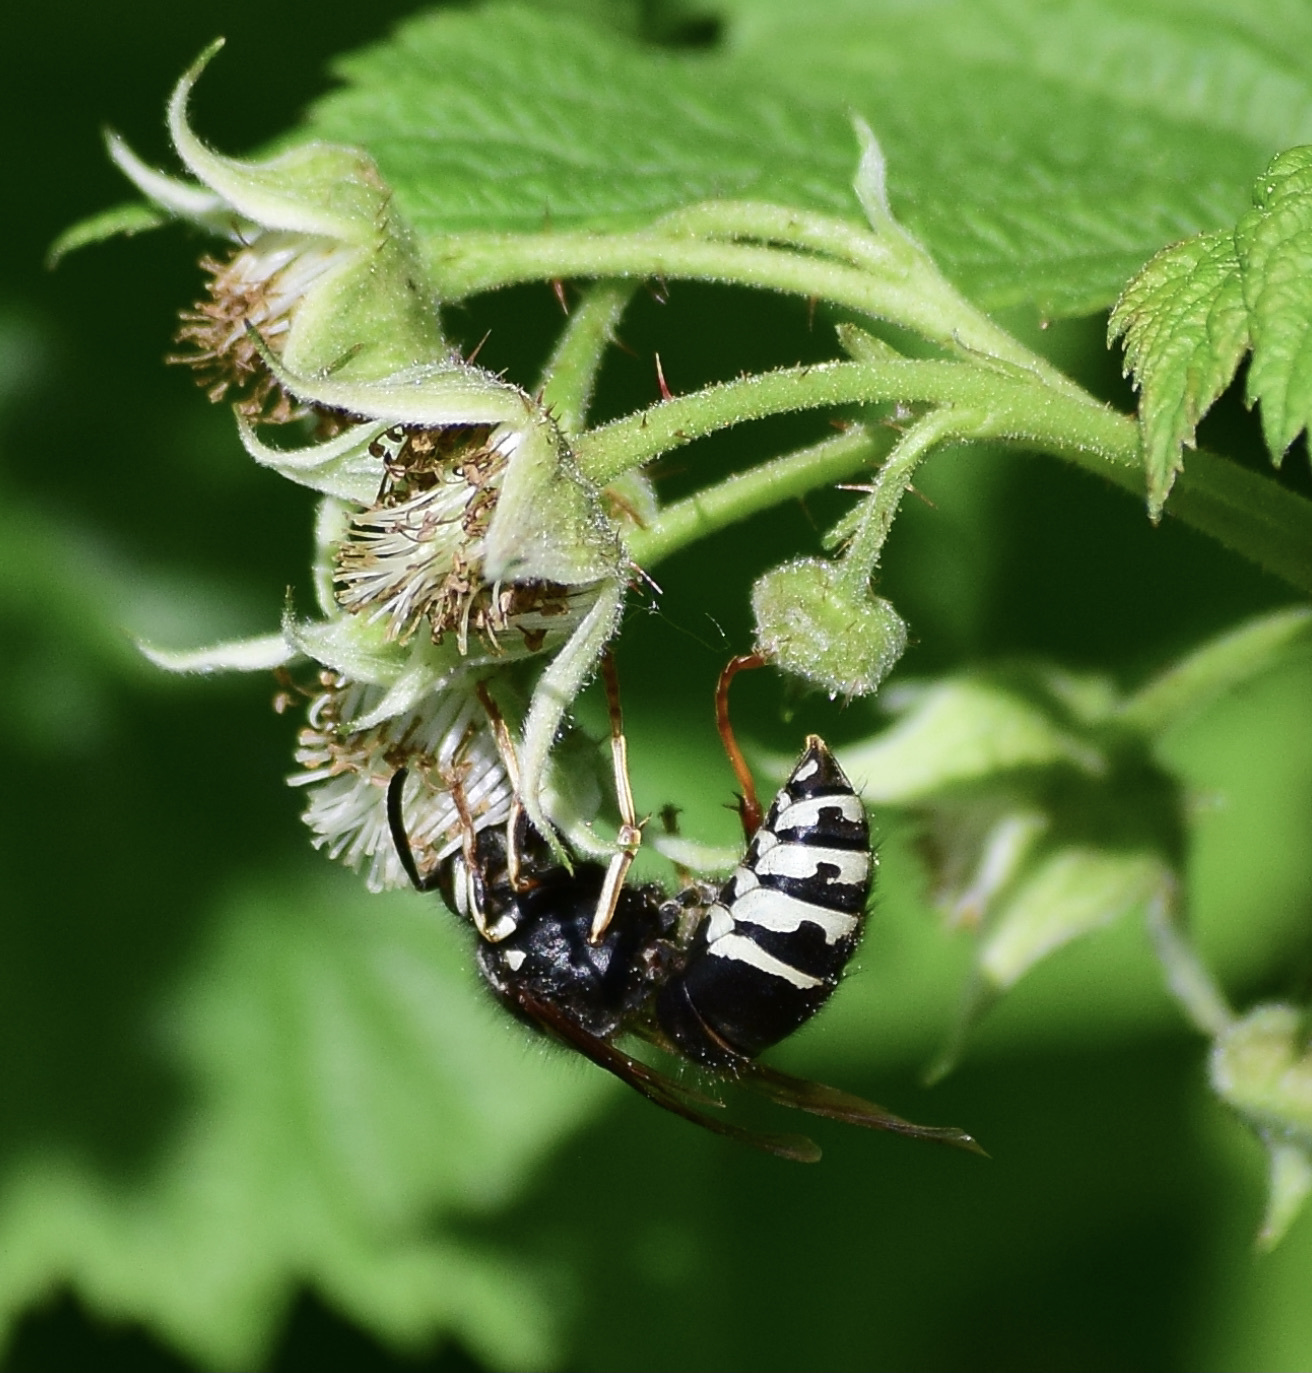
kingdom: Animalia
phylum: Arthropoda
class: Insecta
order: Hymenoptera
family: Vespidae
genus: Vespula
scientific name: Vespula consobrina
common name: Blackjacket
